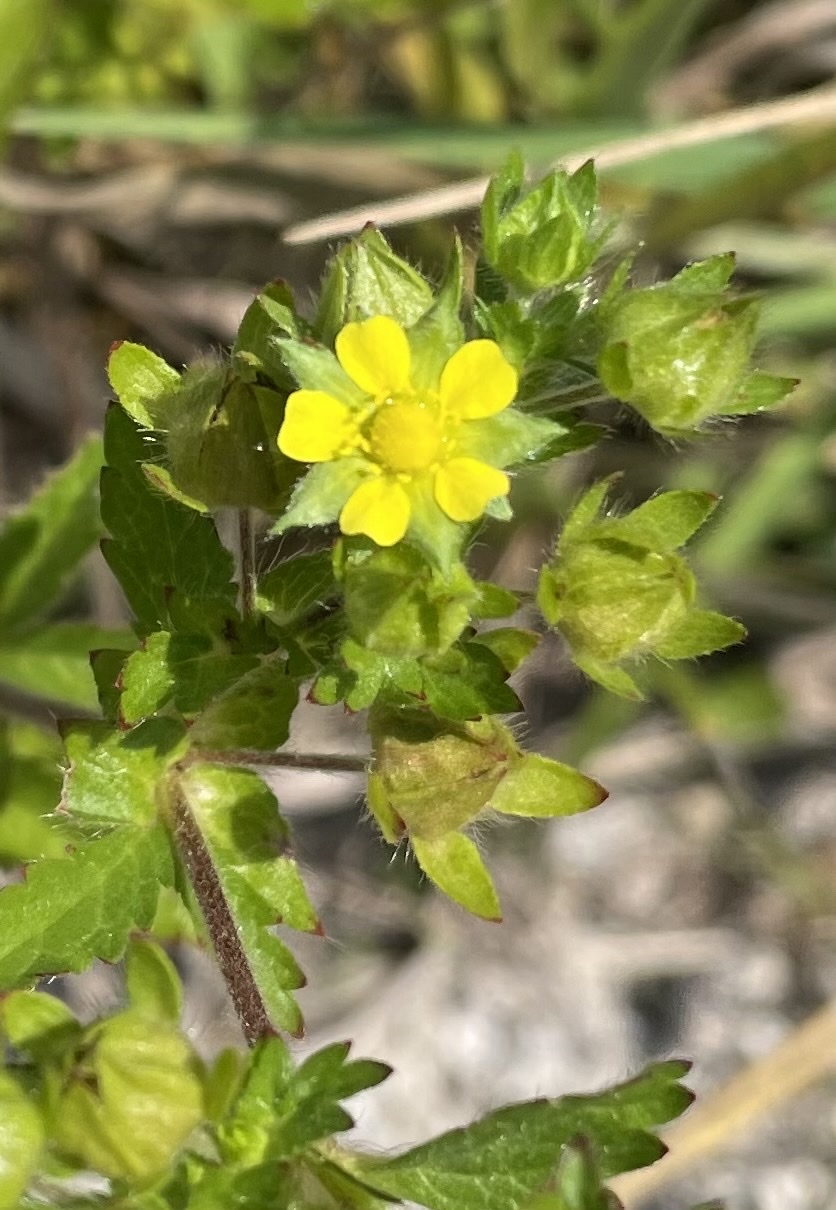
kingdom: Plantae
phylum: Tracheophyta
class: Magnoliopsida
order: Rosales
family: Rosaceae
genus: Potentilla
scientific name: Potentilla norvegica
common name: Ternate-leaved cinquefoil
